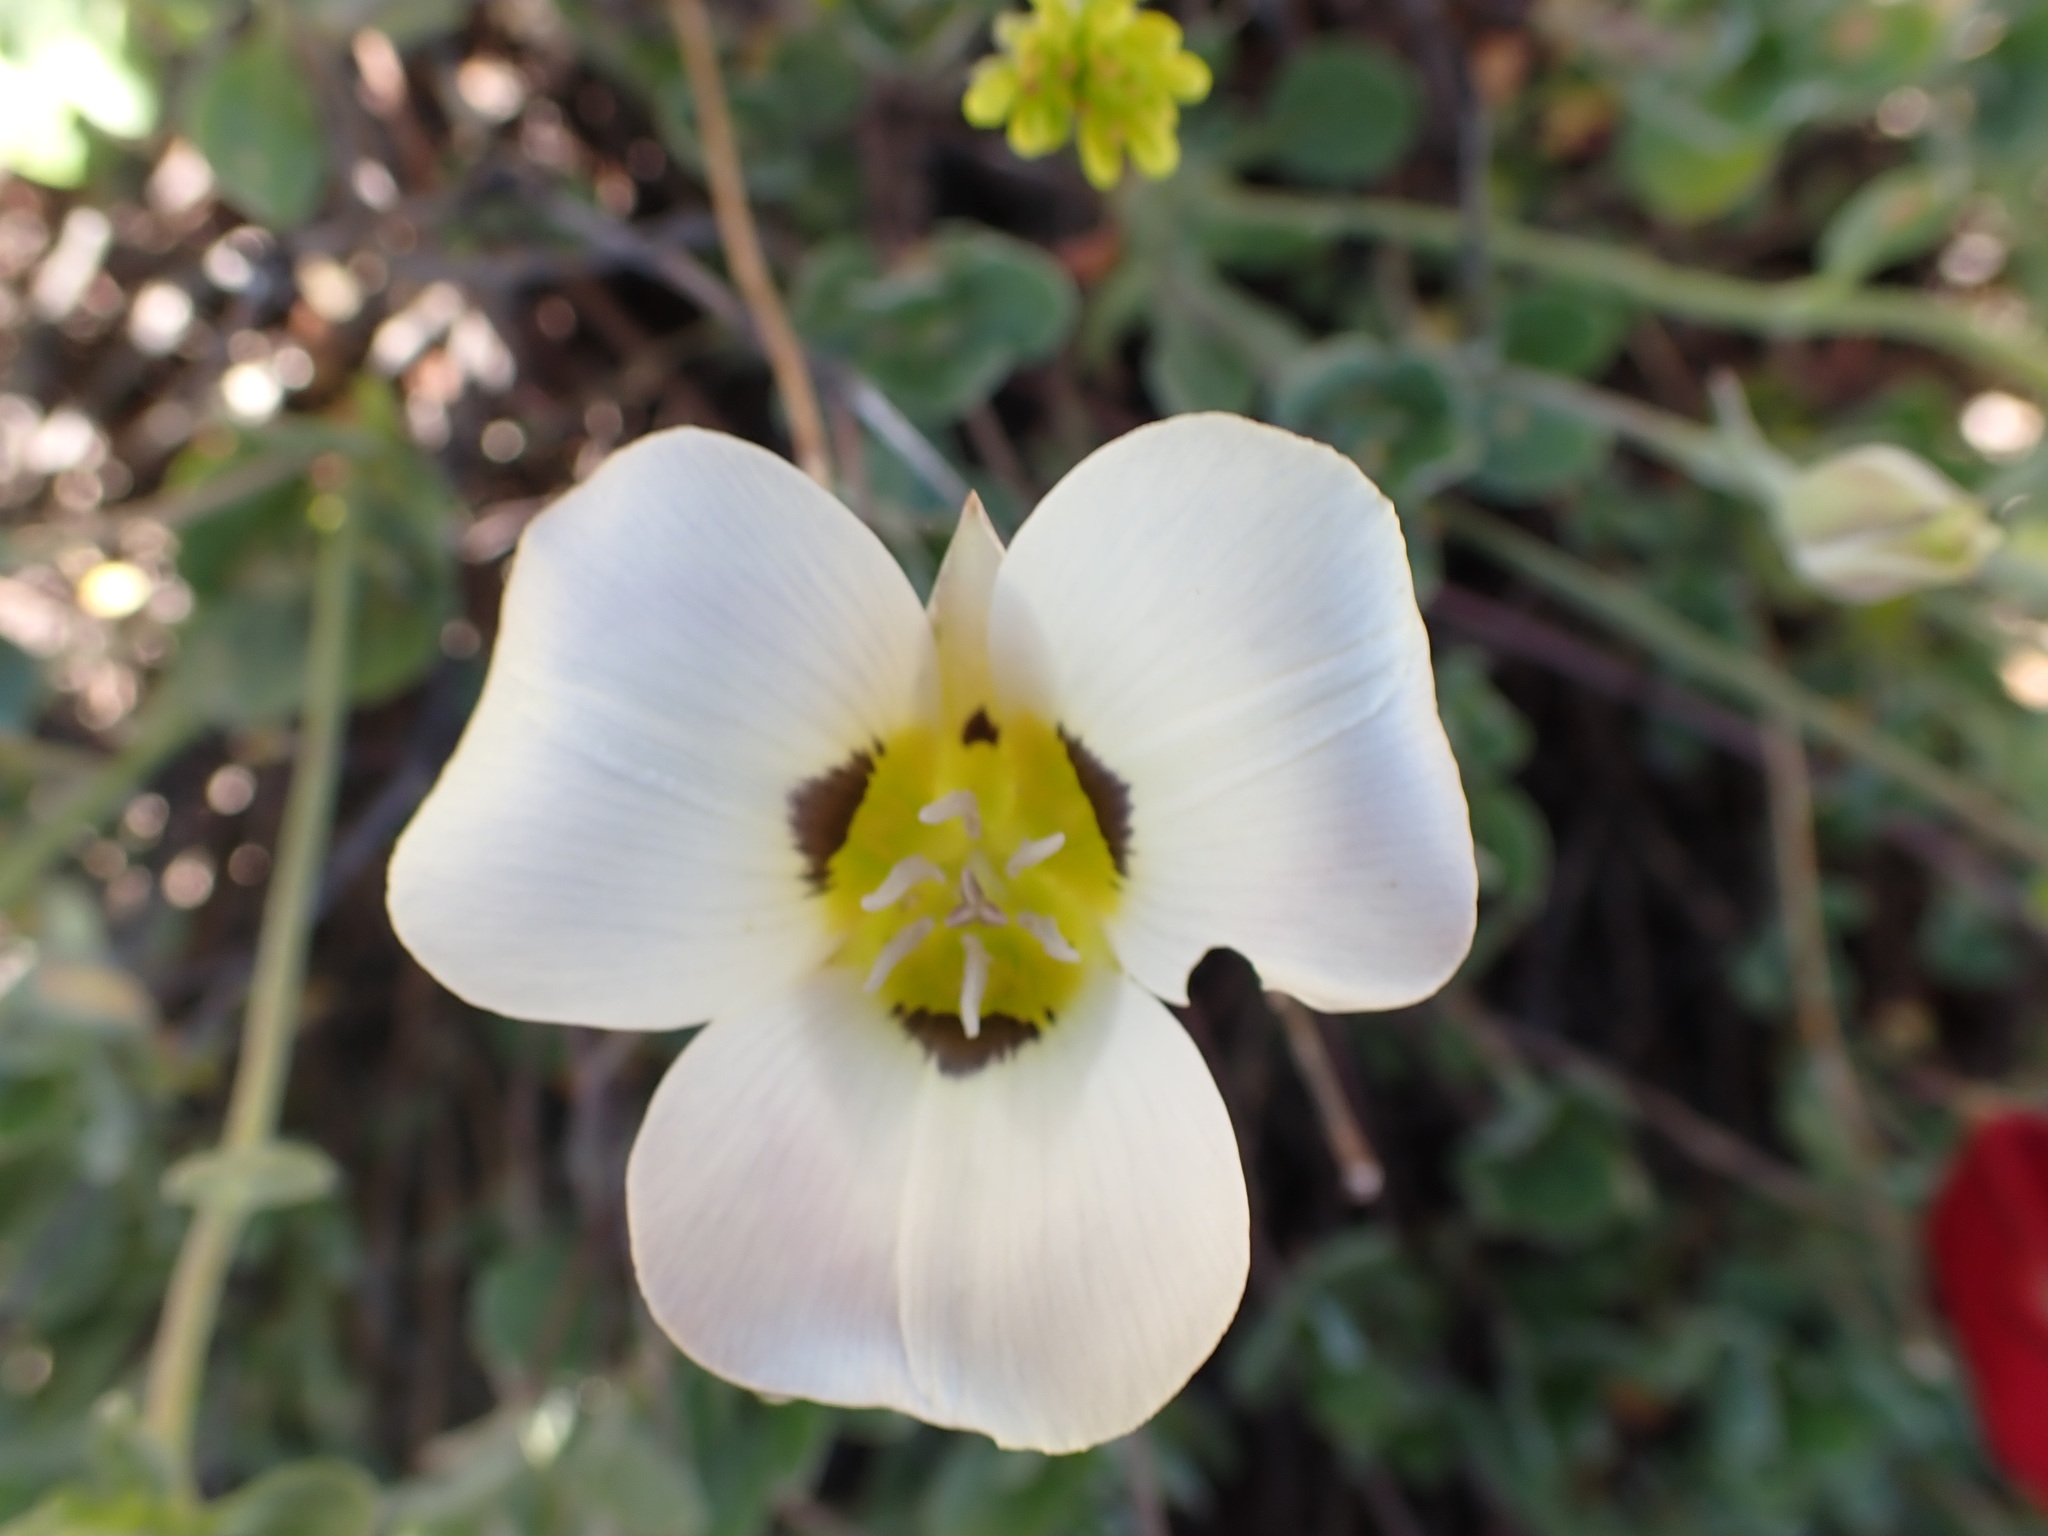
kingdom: Plantae
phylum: Tracheophyta
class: Liliopsida
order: Liliales
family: Liliaceae
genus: Calochortus
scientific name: Calochortus leichtlinii
